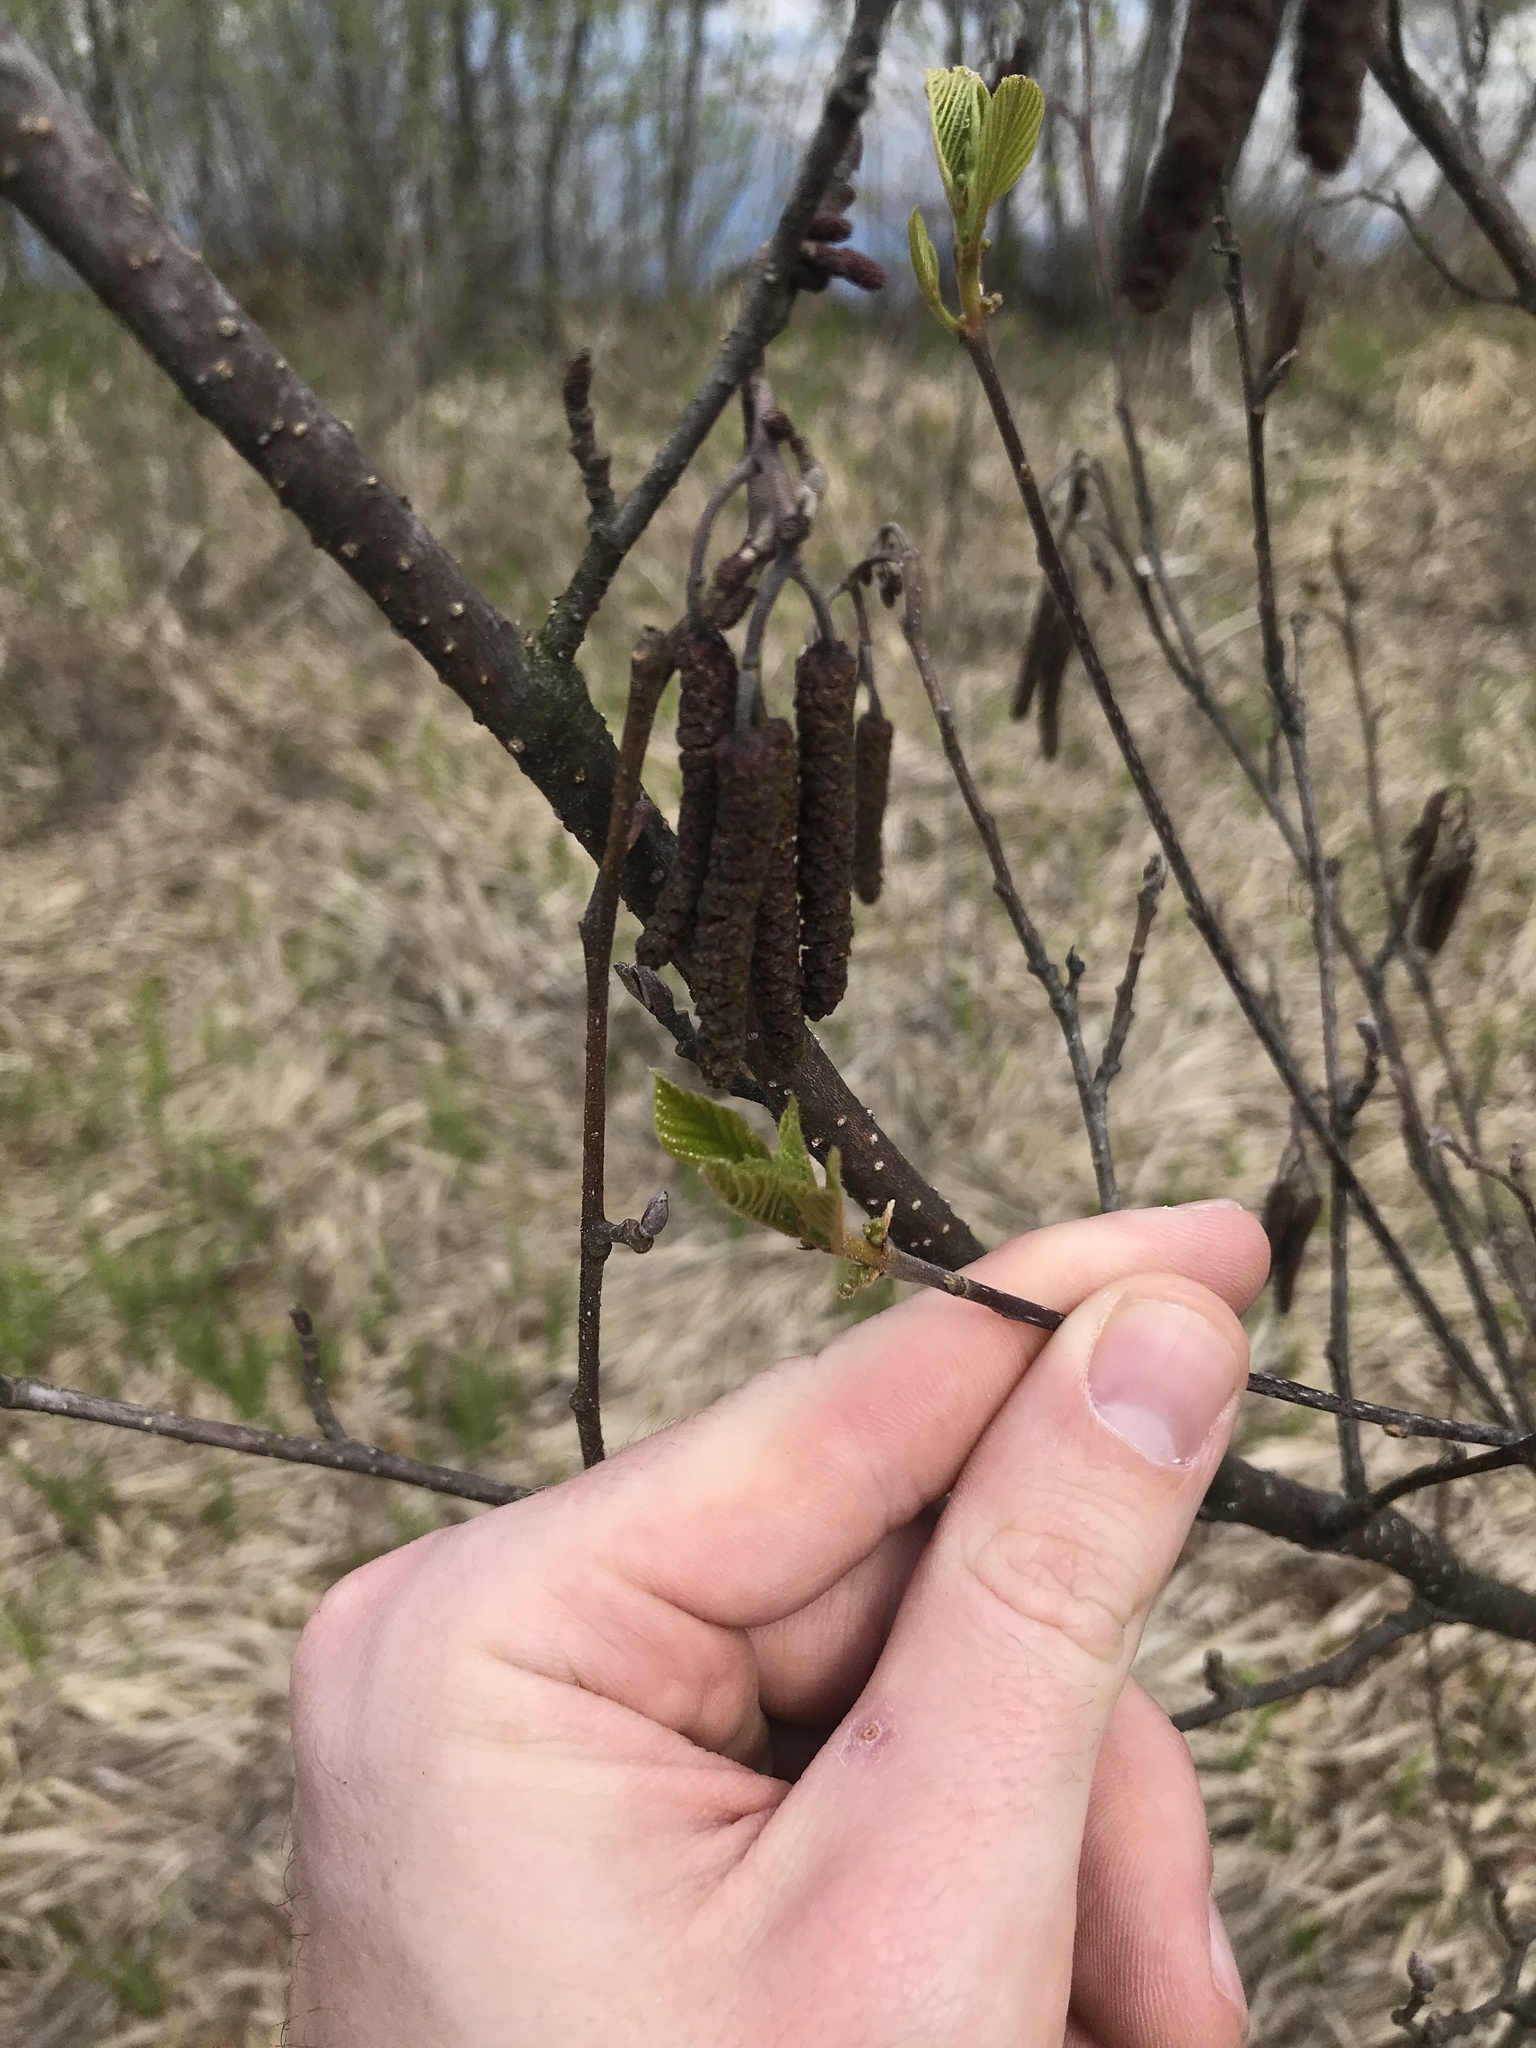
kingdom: Plantae
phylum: Tracheophyta
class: Magnoliopsida
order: Fagales
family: Betulaceae
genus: Alnus
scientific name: Alnus glutinosa
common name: Black alder
